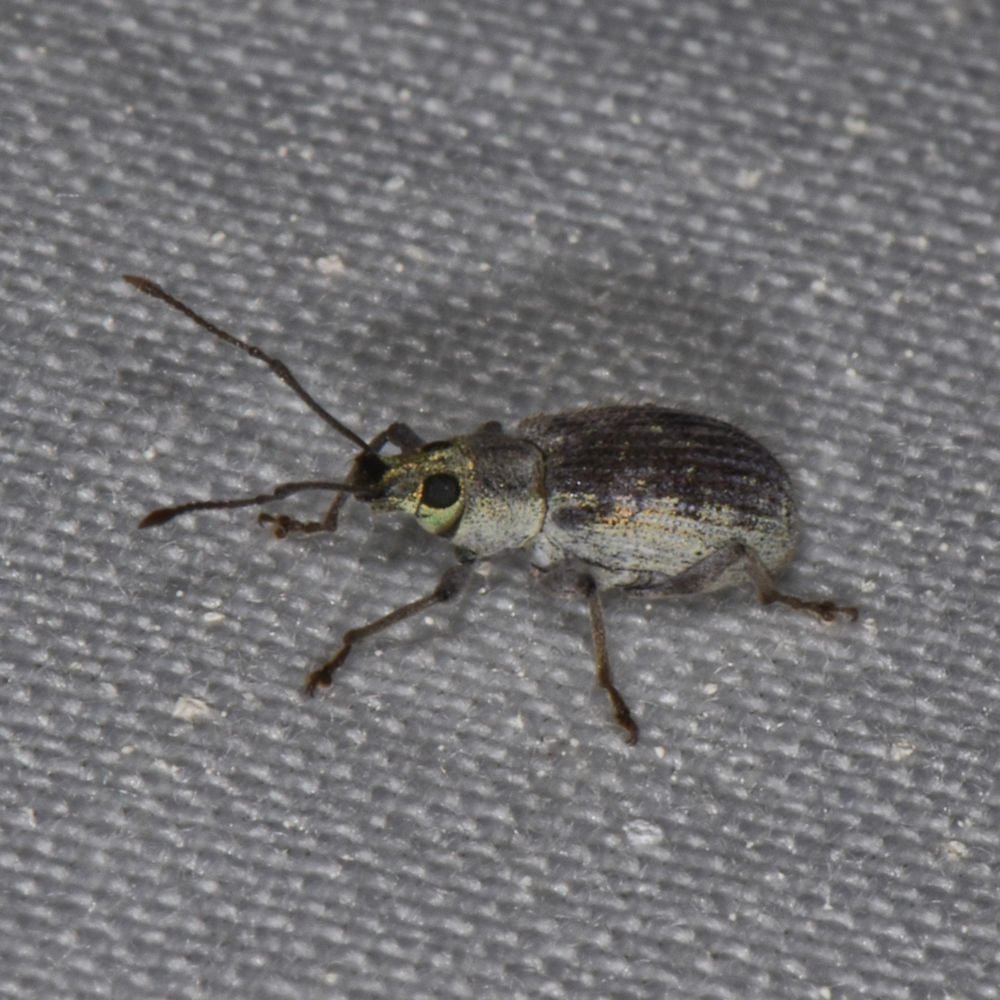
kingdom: Animalia
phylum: Arthropoda
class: Insecta
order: Coleoptera
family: Curculionidae
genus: Cyrtepistomus
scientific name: Cyrtepistomus castaneus
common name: Weevil
